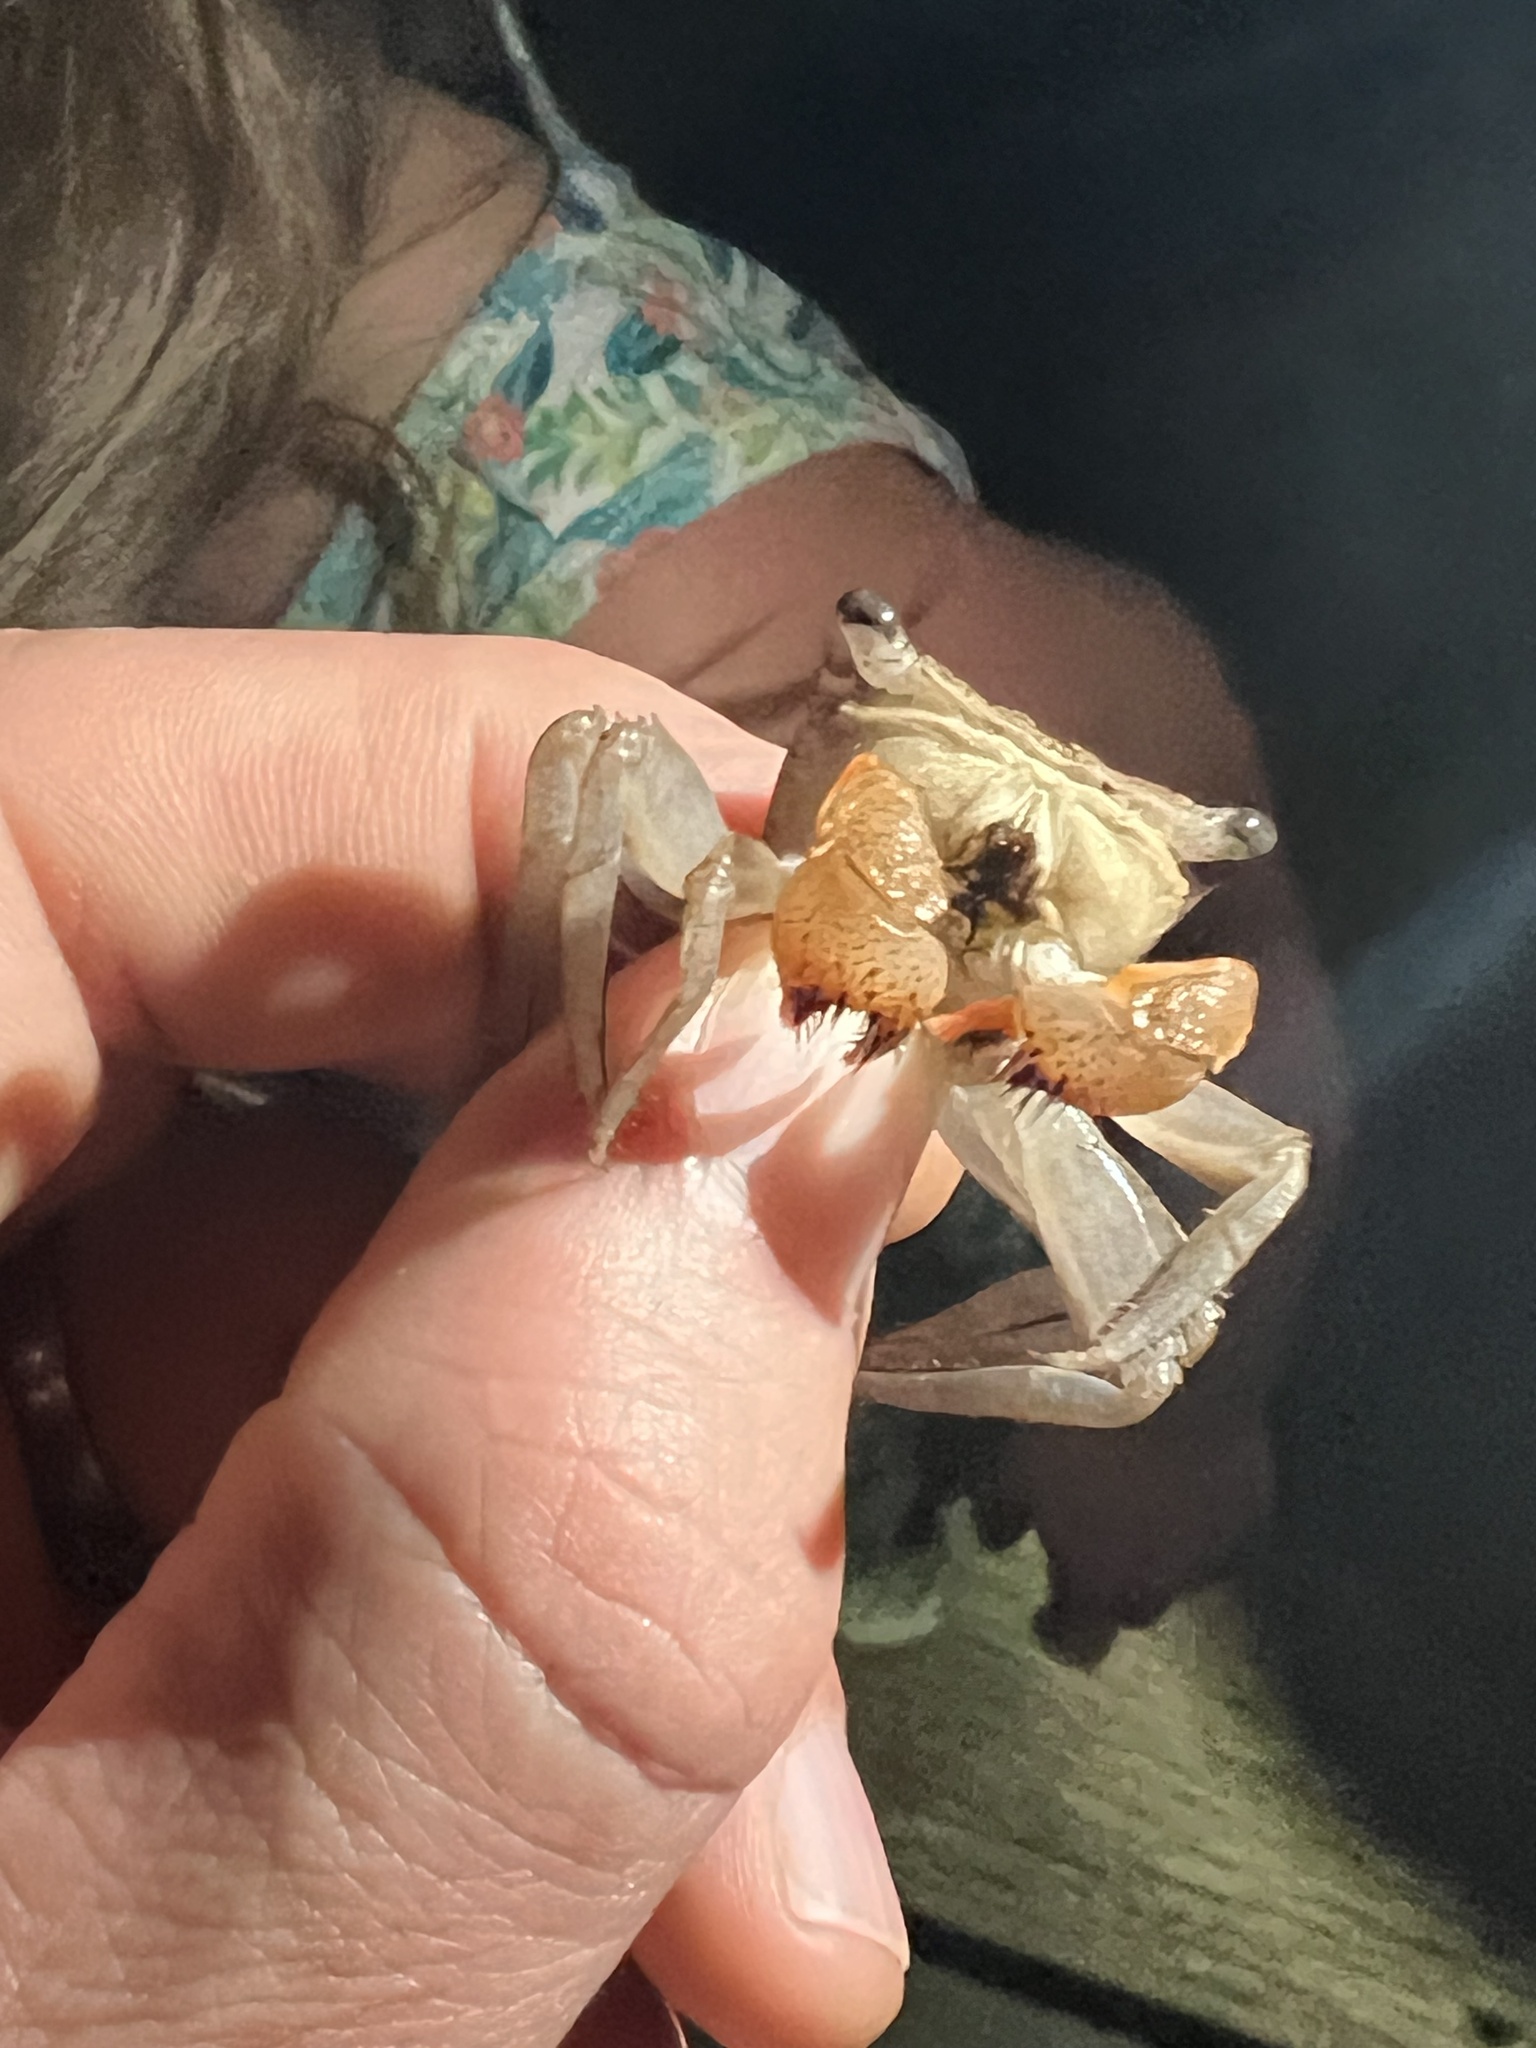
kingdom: Animalia
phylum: Arthropoda
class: Malacostraca
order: Decapoda
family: Sesarmidae
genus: Aratus
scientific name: Aratus pacificus
